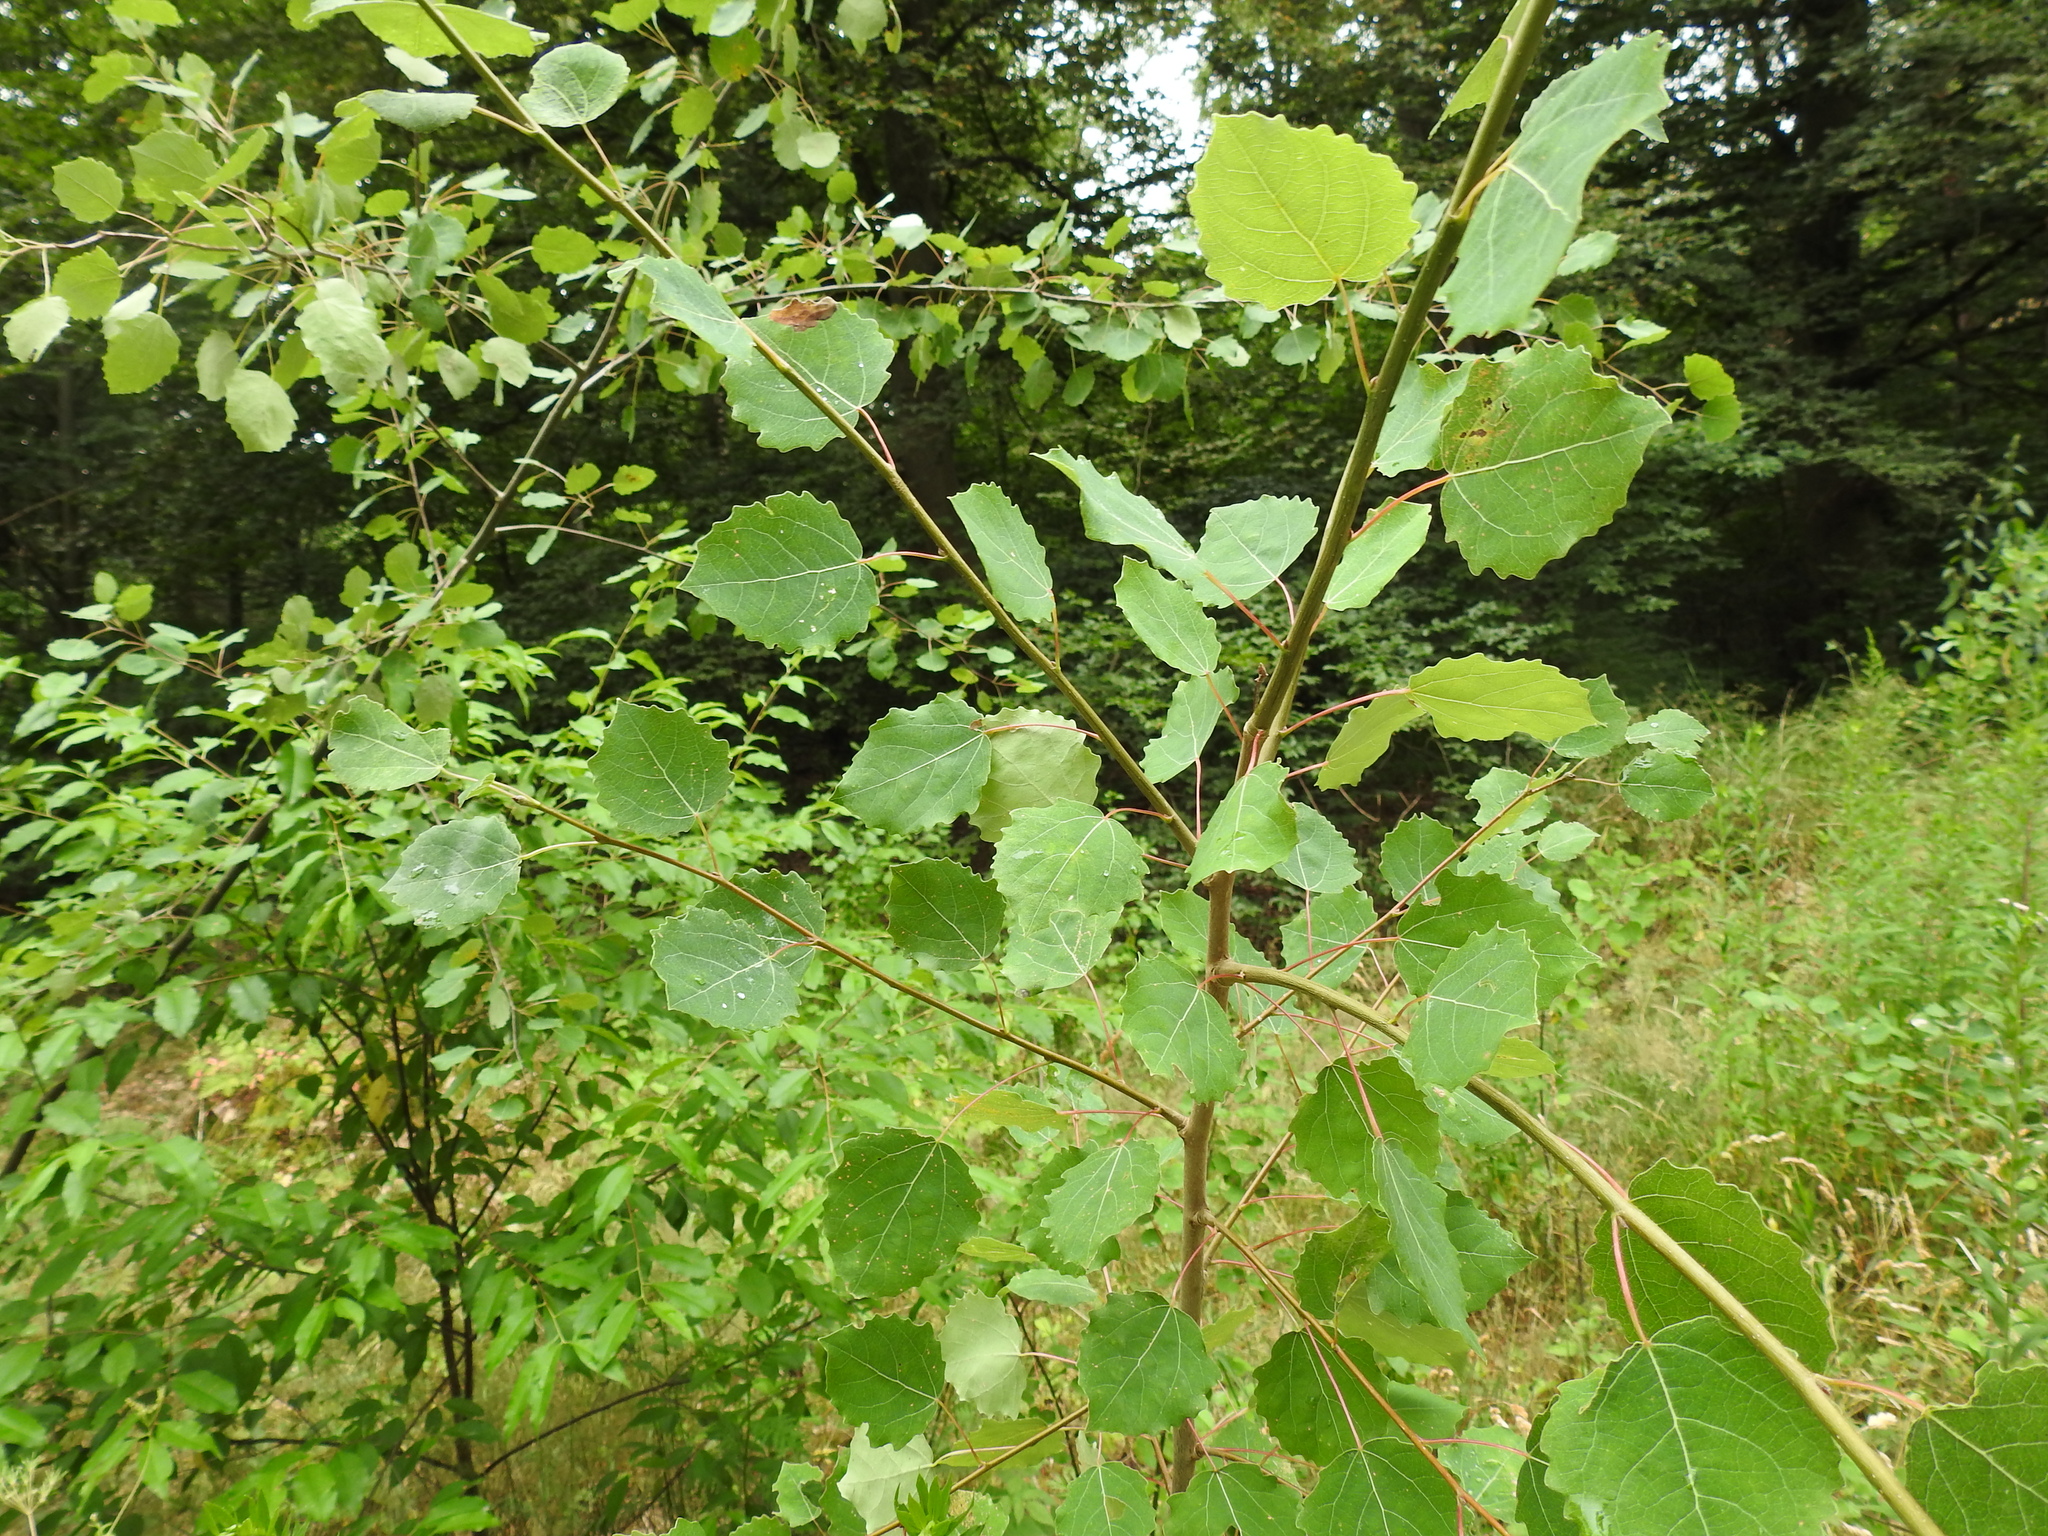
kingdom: Plantae
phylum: Tracheophyta
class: Magnoliopsida
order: Malpighiales
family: Salicaceae
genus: Populus
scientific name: Populus tremula
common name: European aspen
